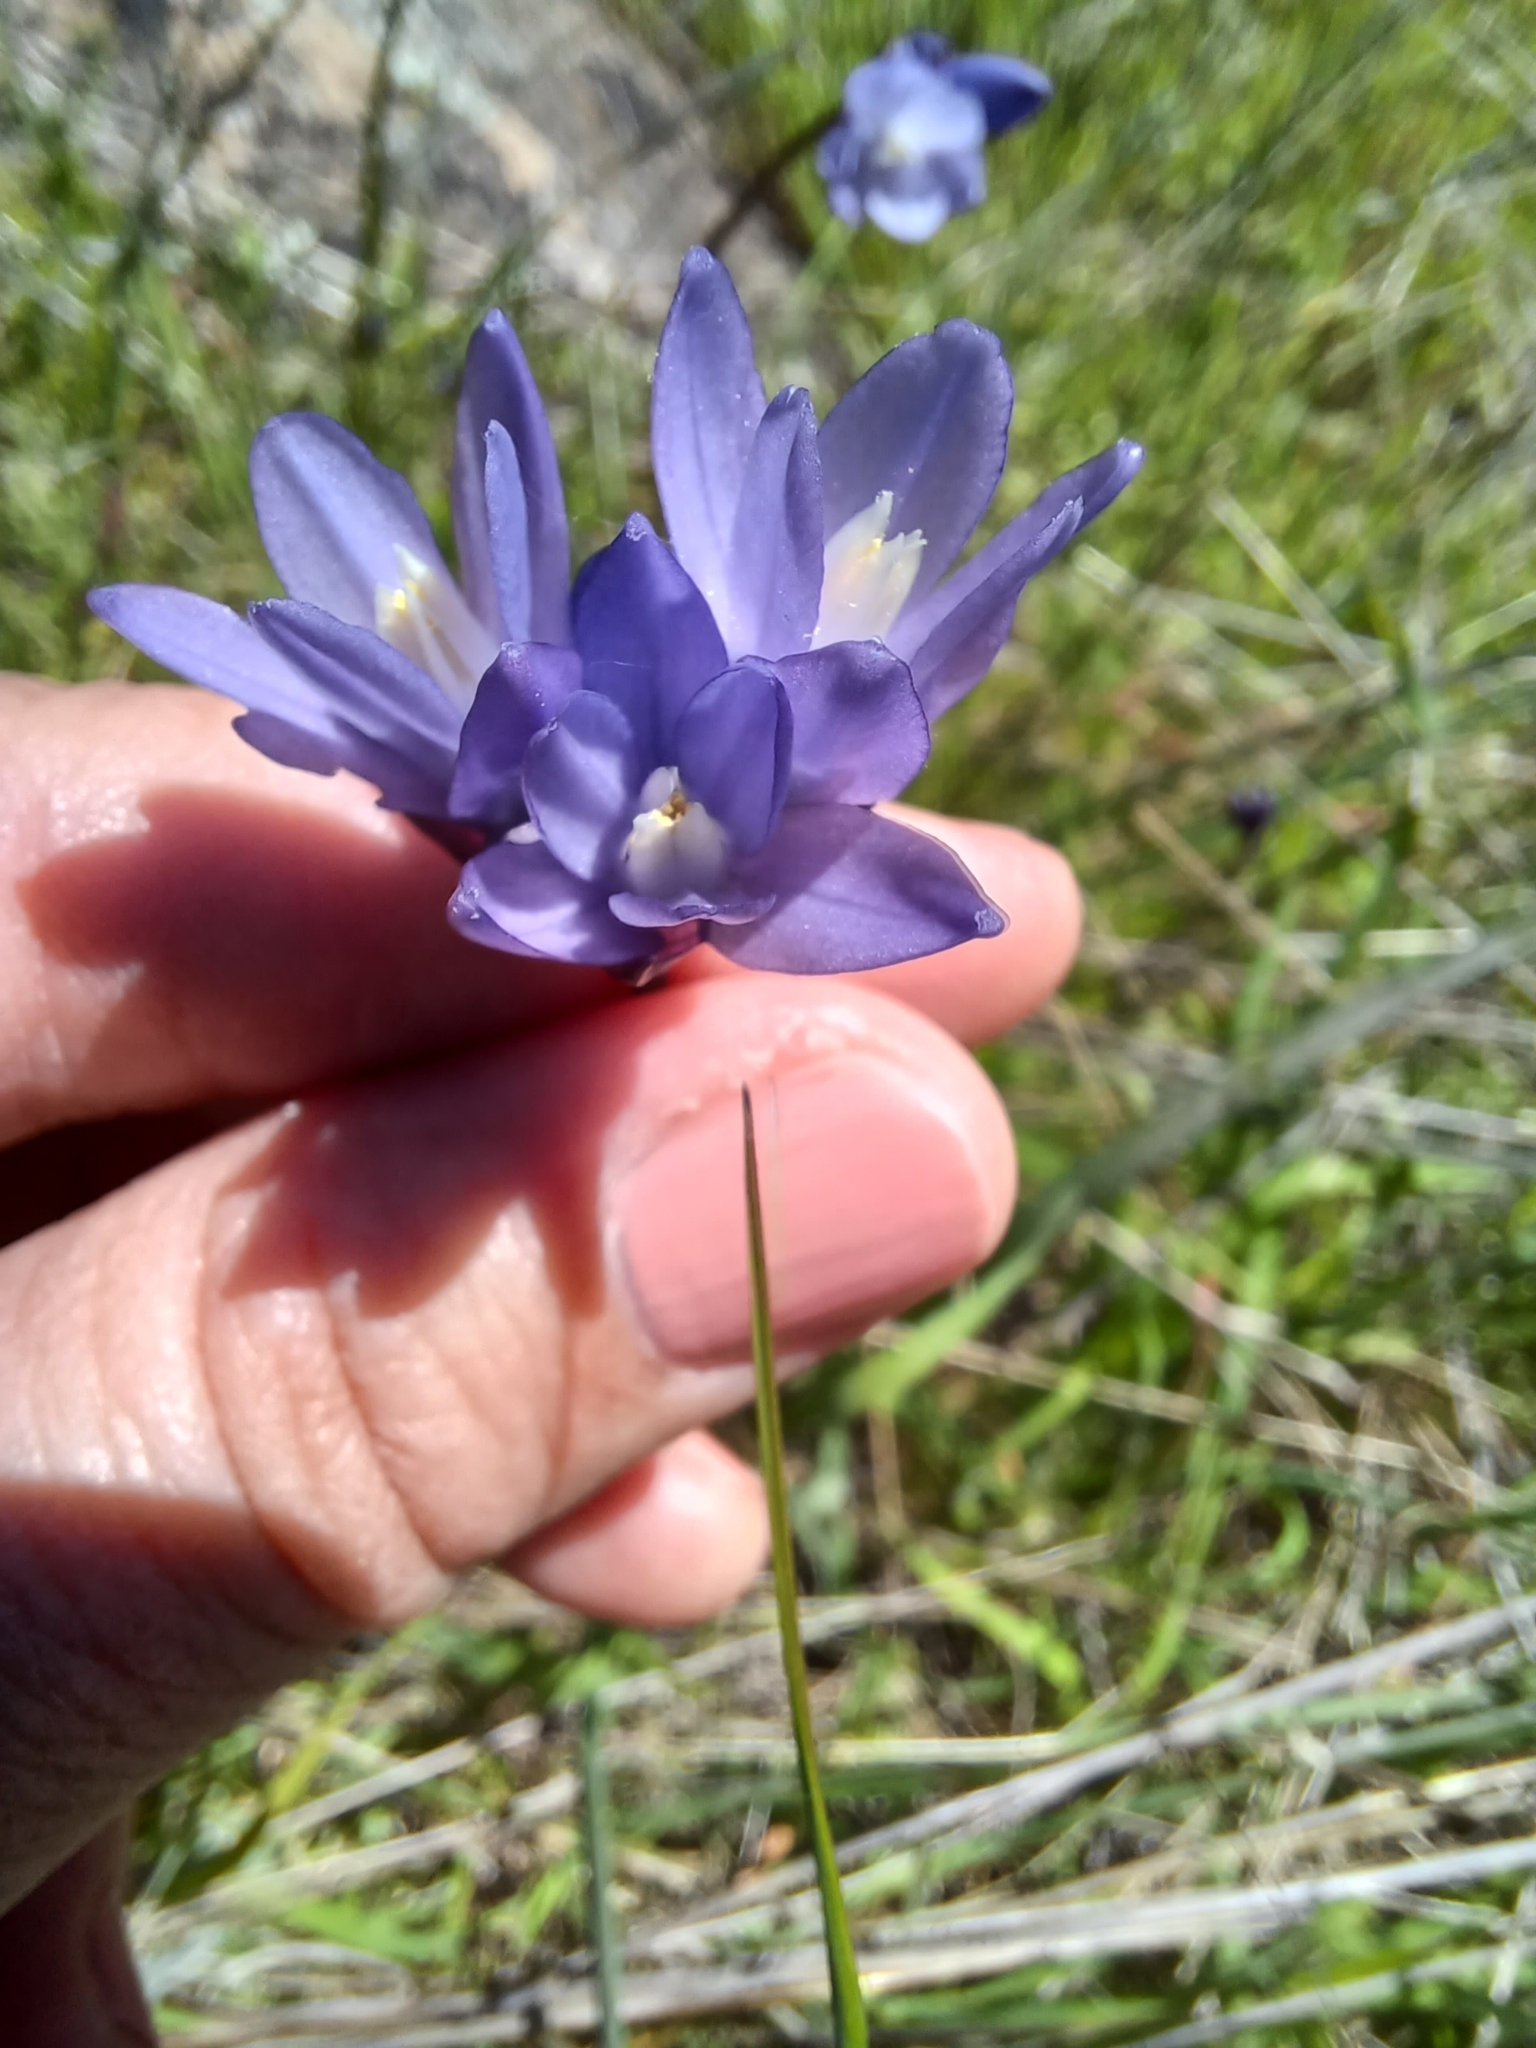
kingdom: Plantae
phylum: Tracheophyta
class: Liliopsida
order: Asparagales
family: Asparagaceae
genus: Dipterostemon
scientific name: Dipterostemon capitatus
